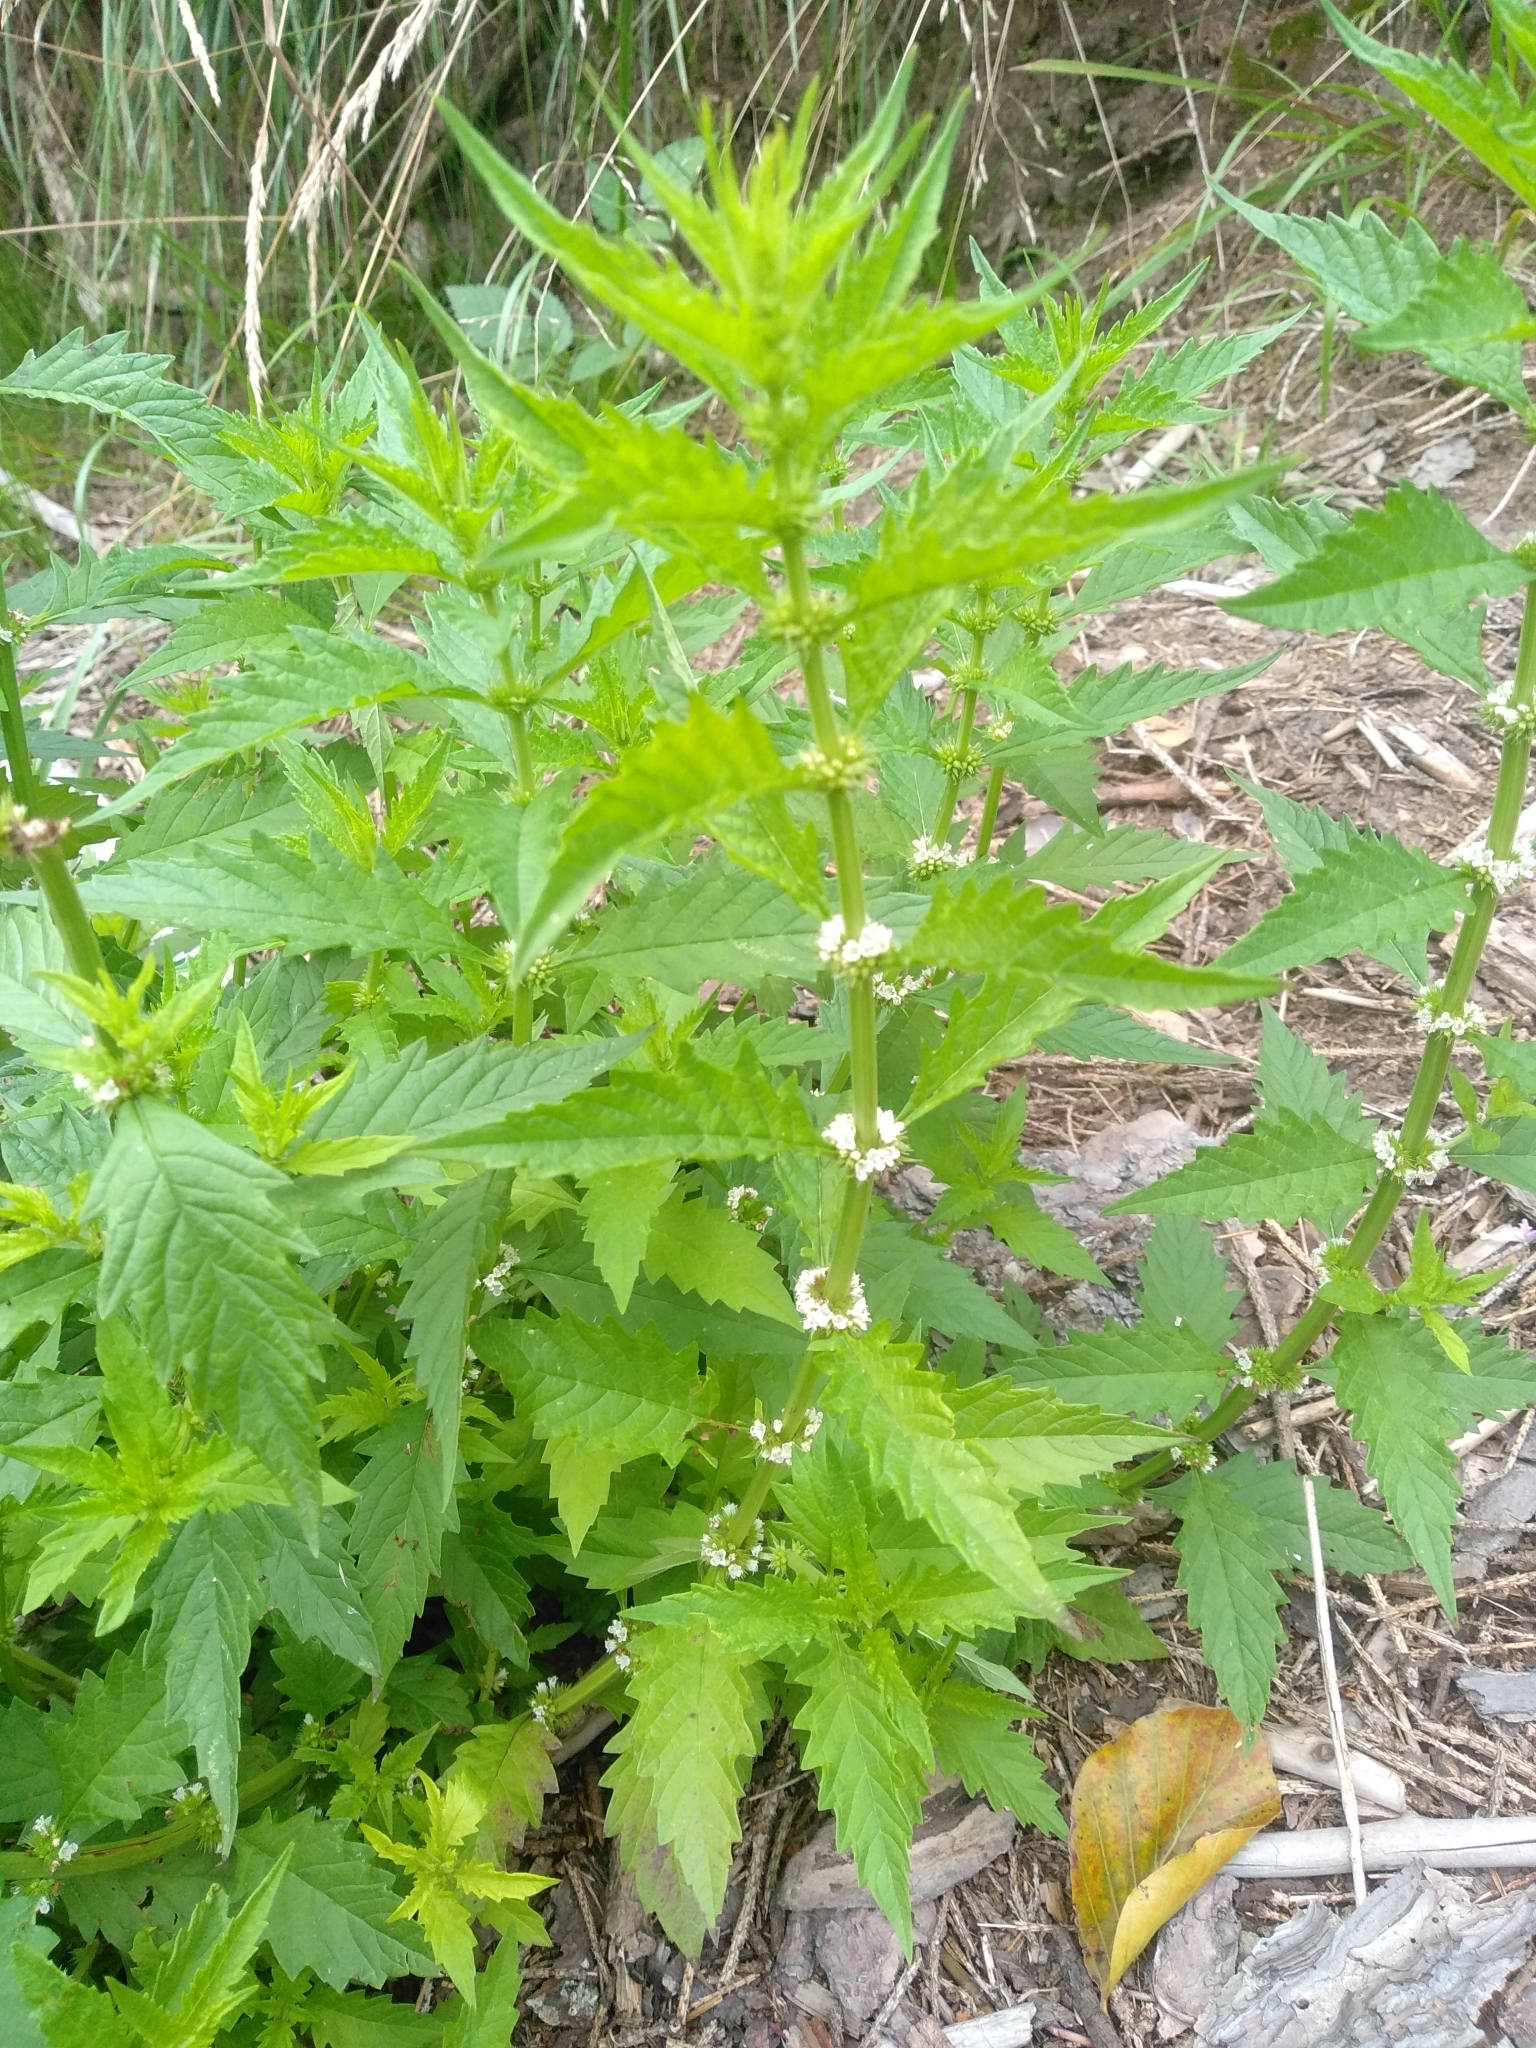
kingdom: Plantae
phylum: Tracheophyta
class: Magnoliopsida
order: Lamiales
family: Lamiaceae
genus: Lycopus
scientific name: Lycopus europaeus
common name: European bugleweed
